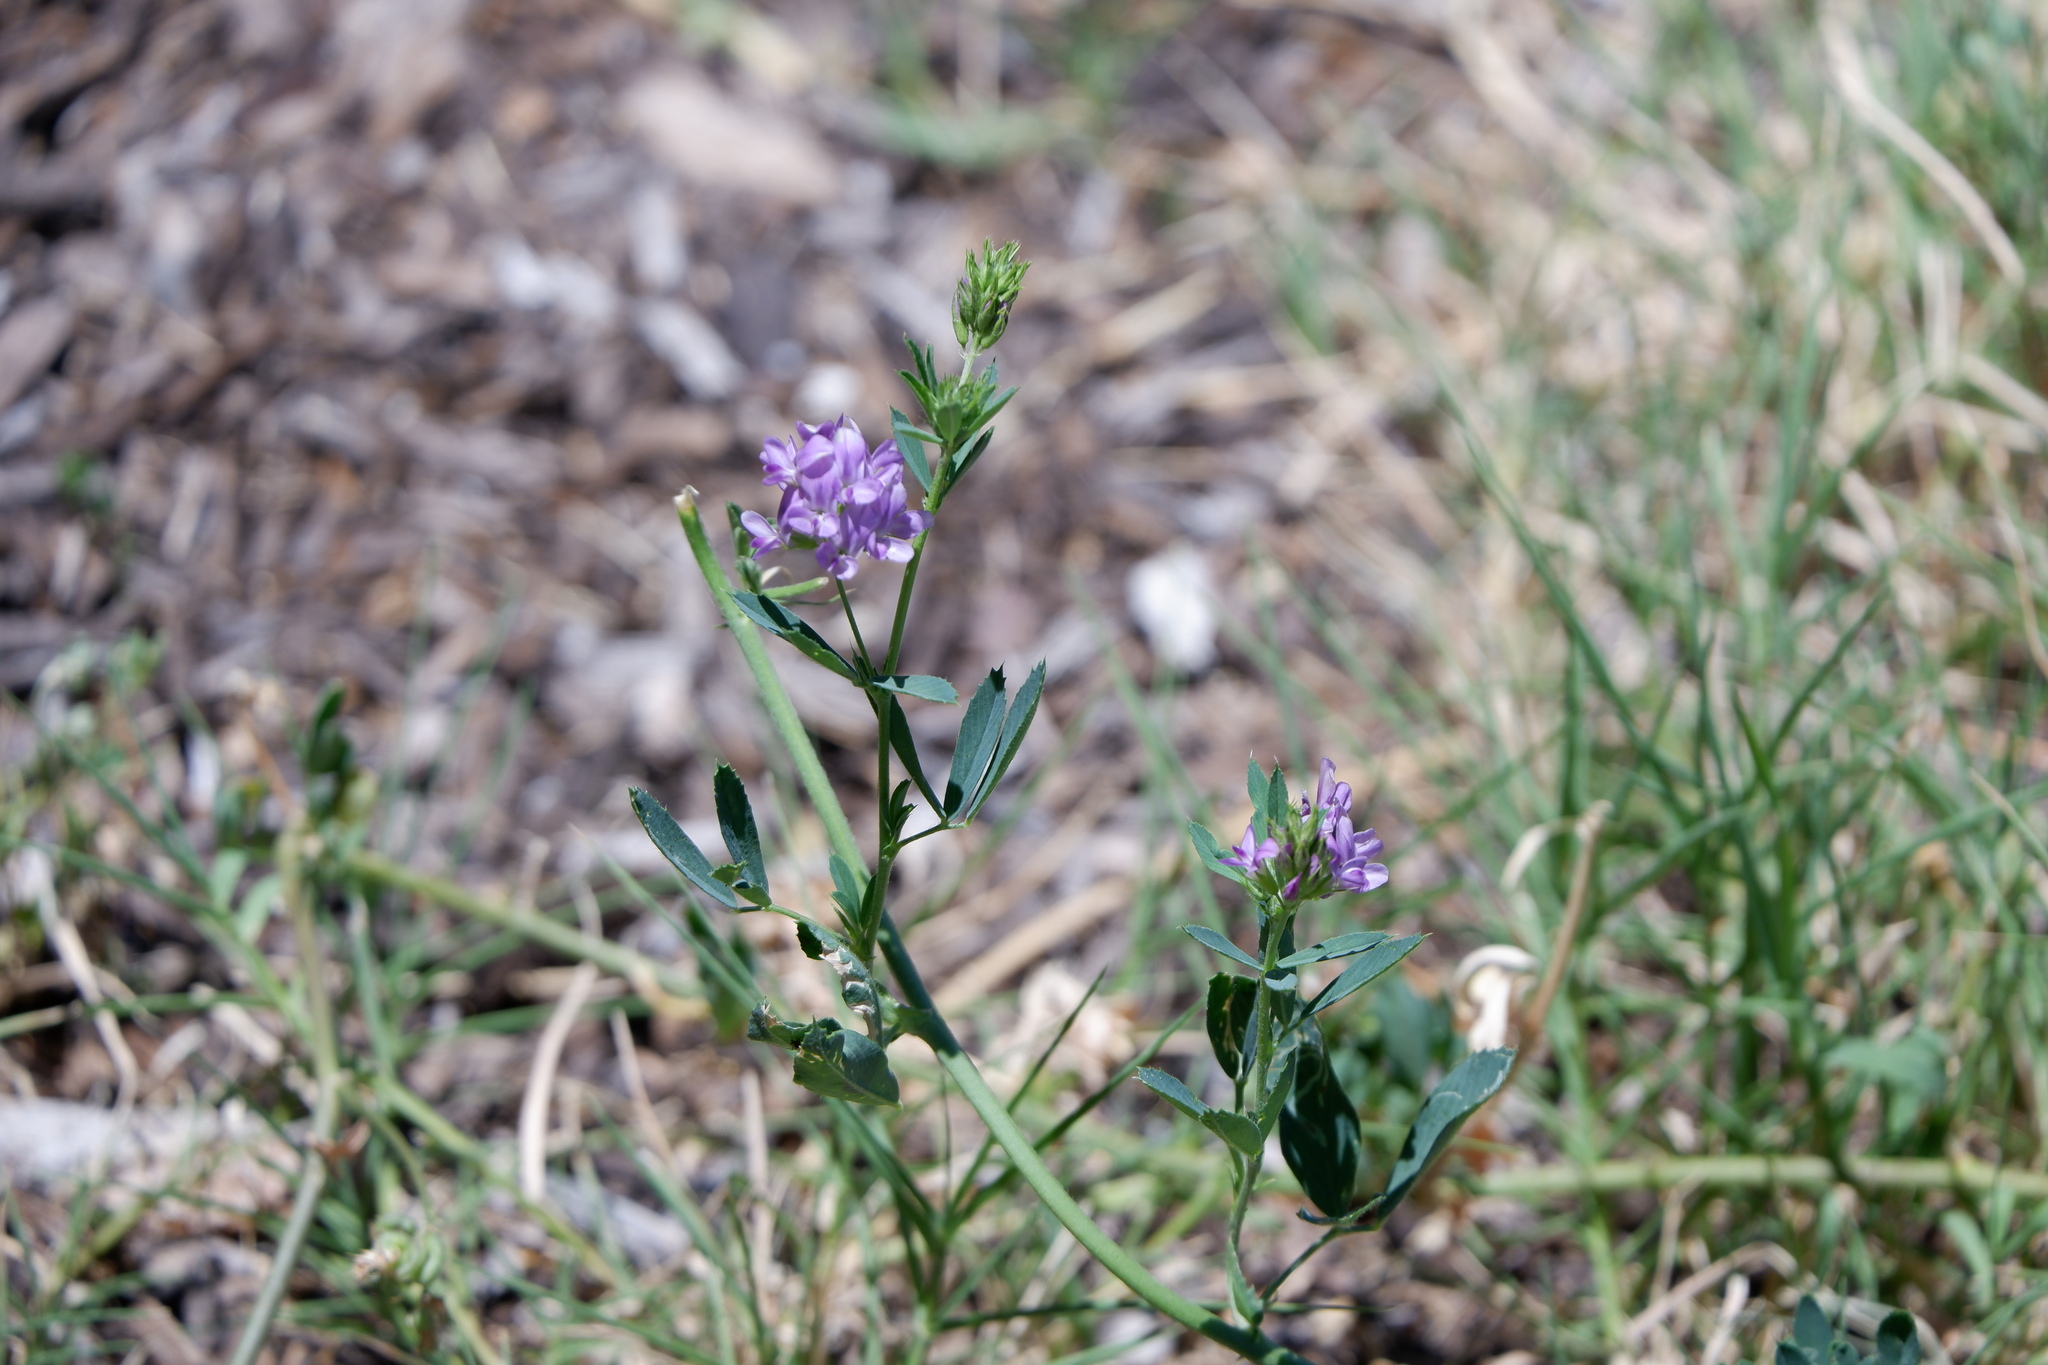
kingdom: Plantae
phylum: Tracheophyta
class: Magnoliopsida
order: Fabales
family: Fabaceae
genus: Medicago
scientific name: Medicago sativa
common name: Alfalfa
